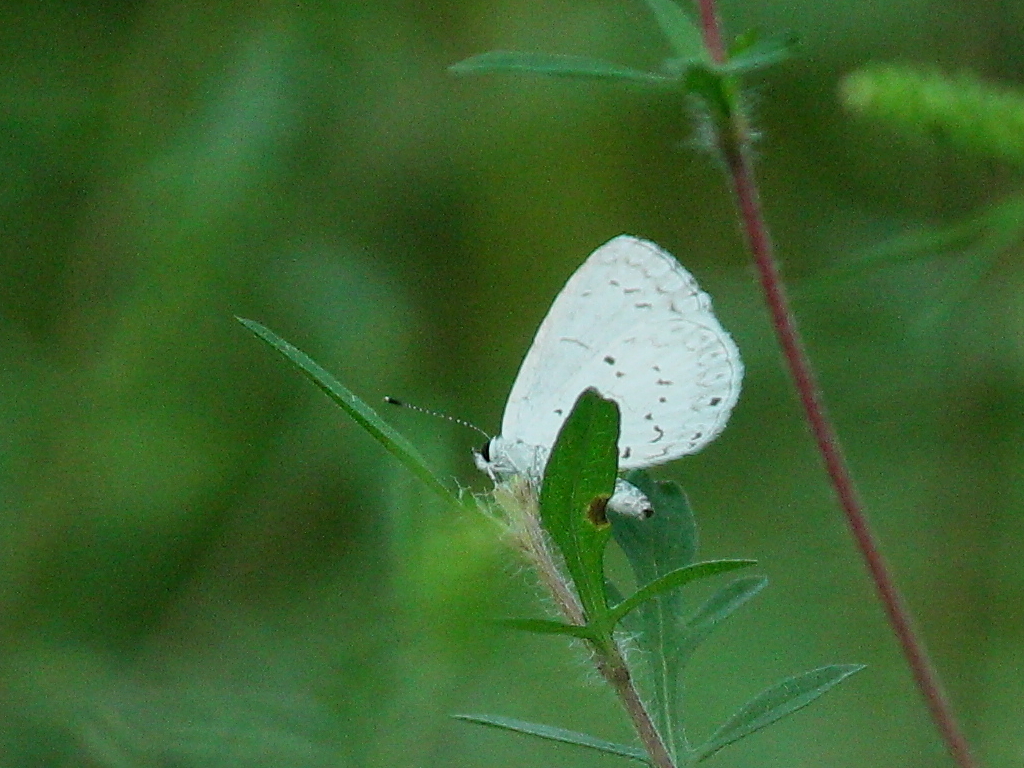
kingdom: Animalia
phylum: Arthropoda
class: Insecta
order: Lepidoptera
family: Lycaenidae
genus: Cyaniris
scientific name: Cyaniris neglecta
